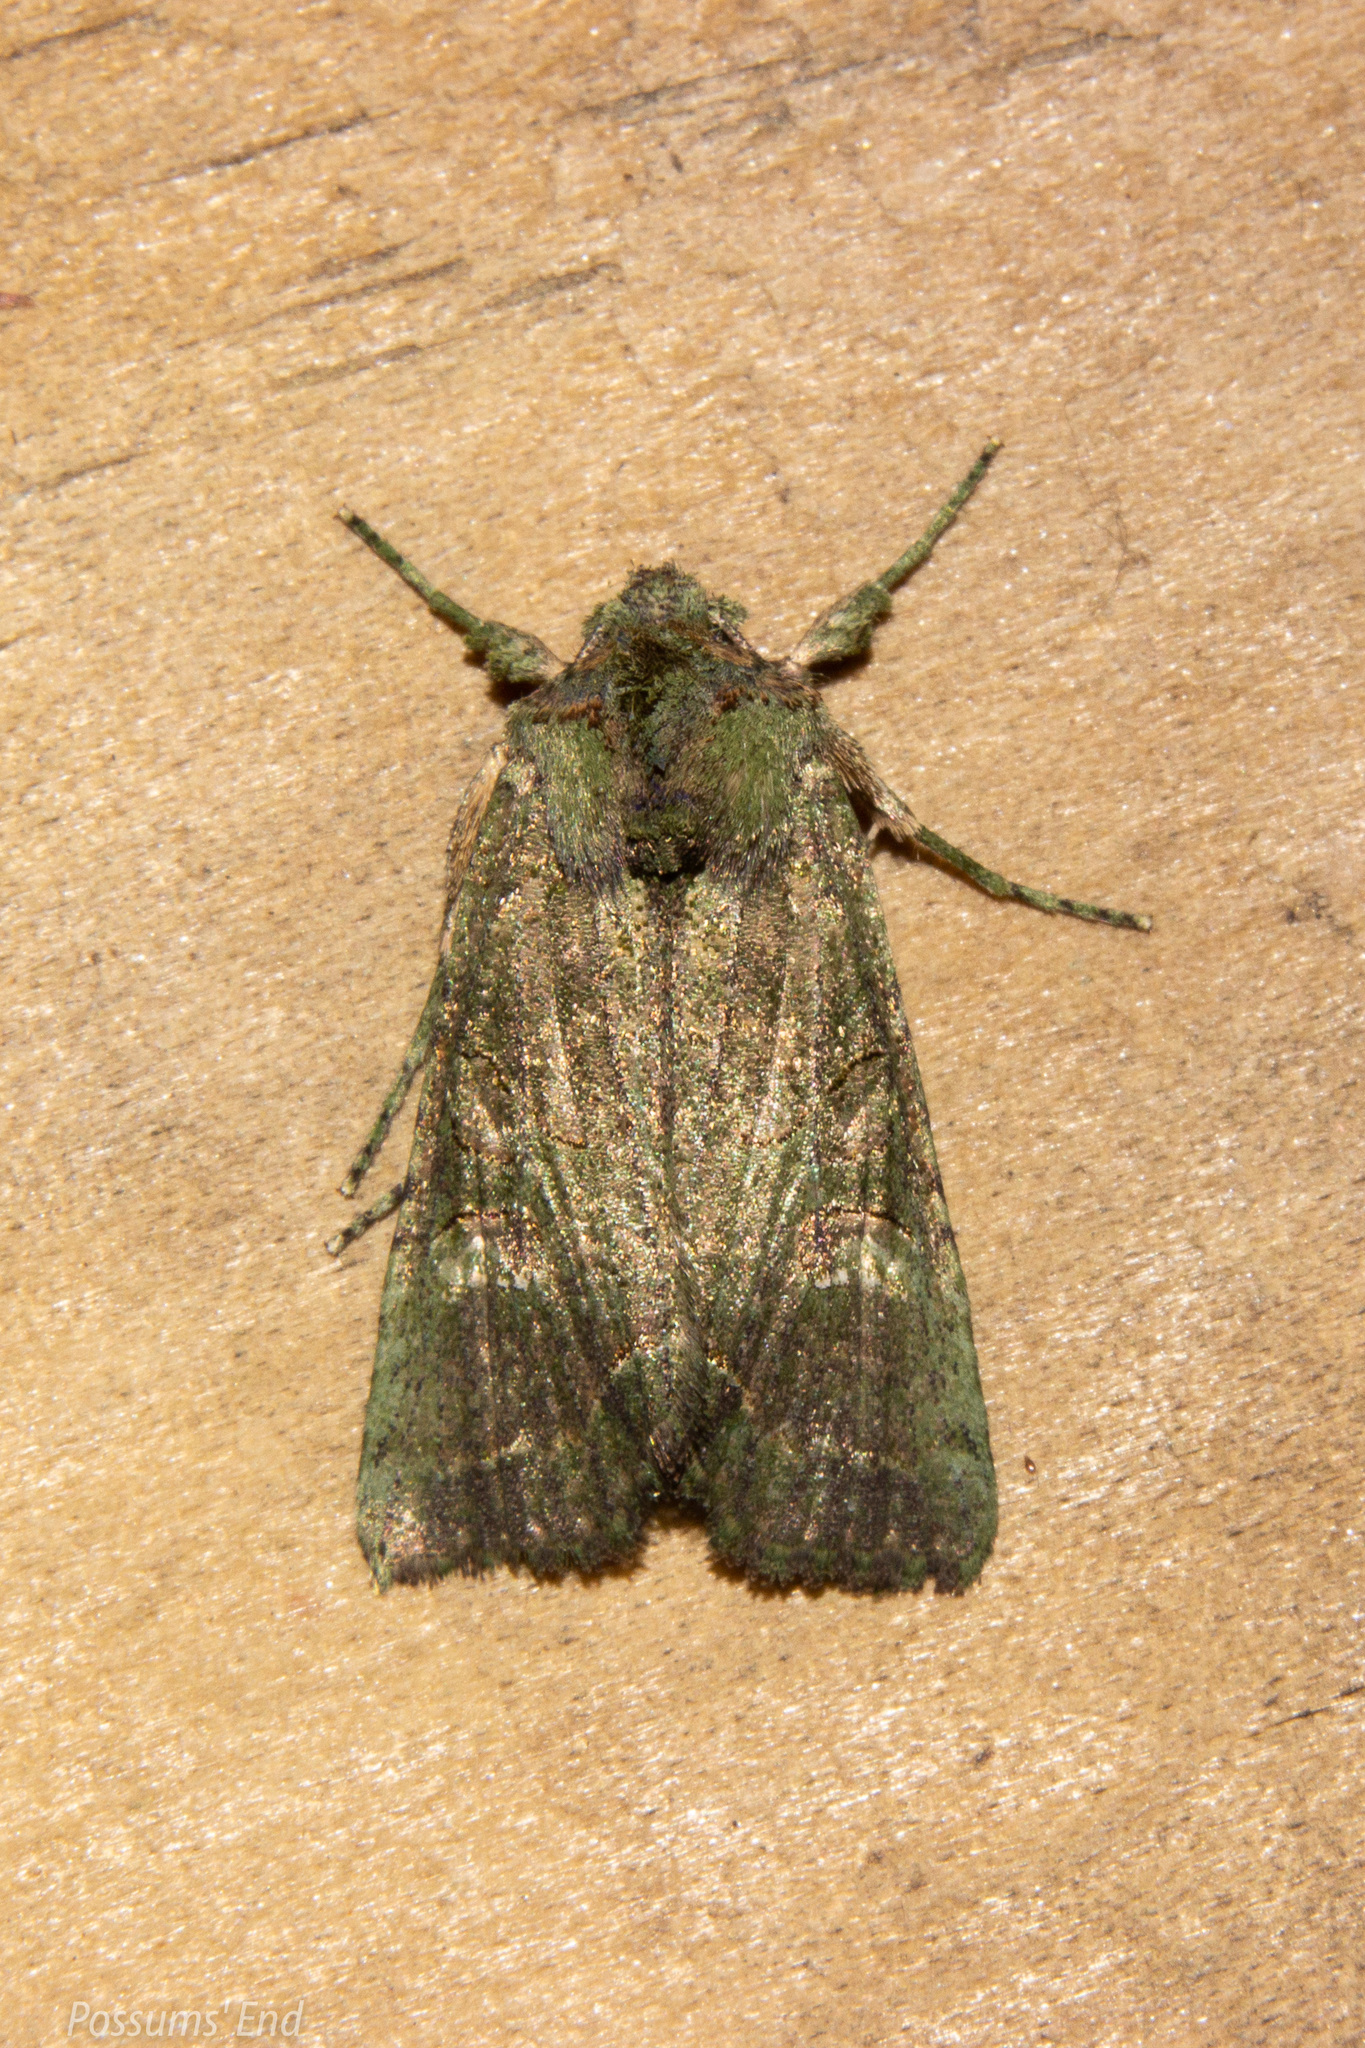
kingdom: Animalia
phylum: Arthropoda
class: Insecta
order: Lepidoptera
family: Noctuidae
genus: Meterana
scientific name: Meterana levis
